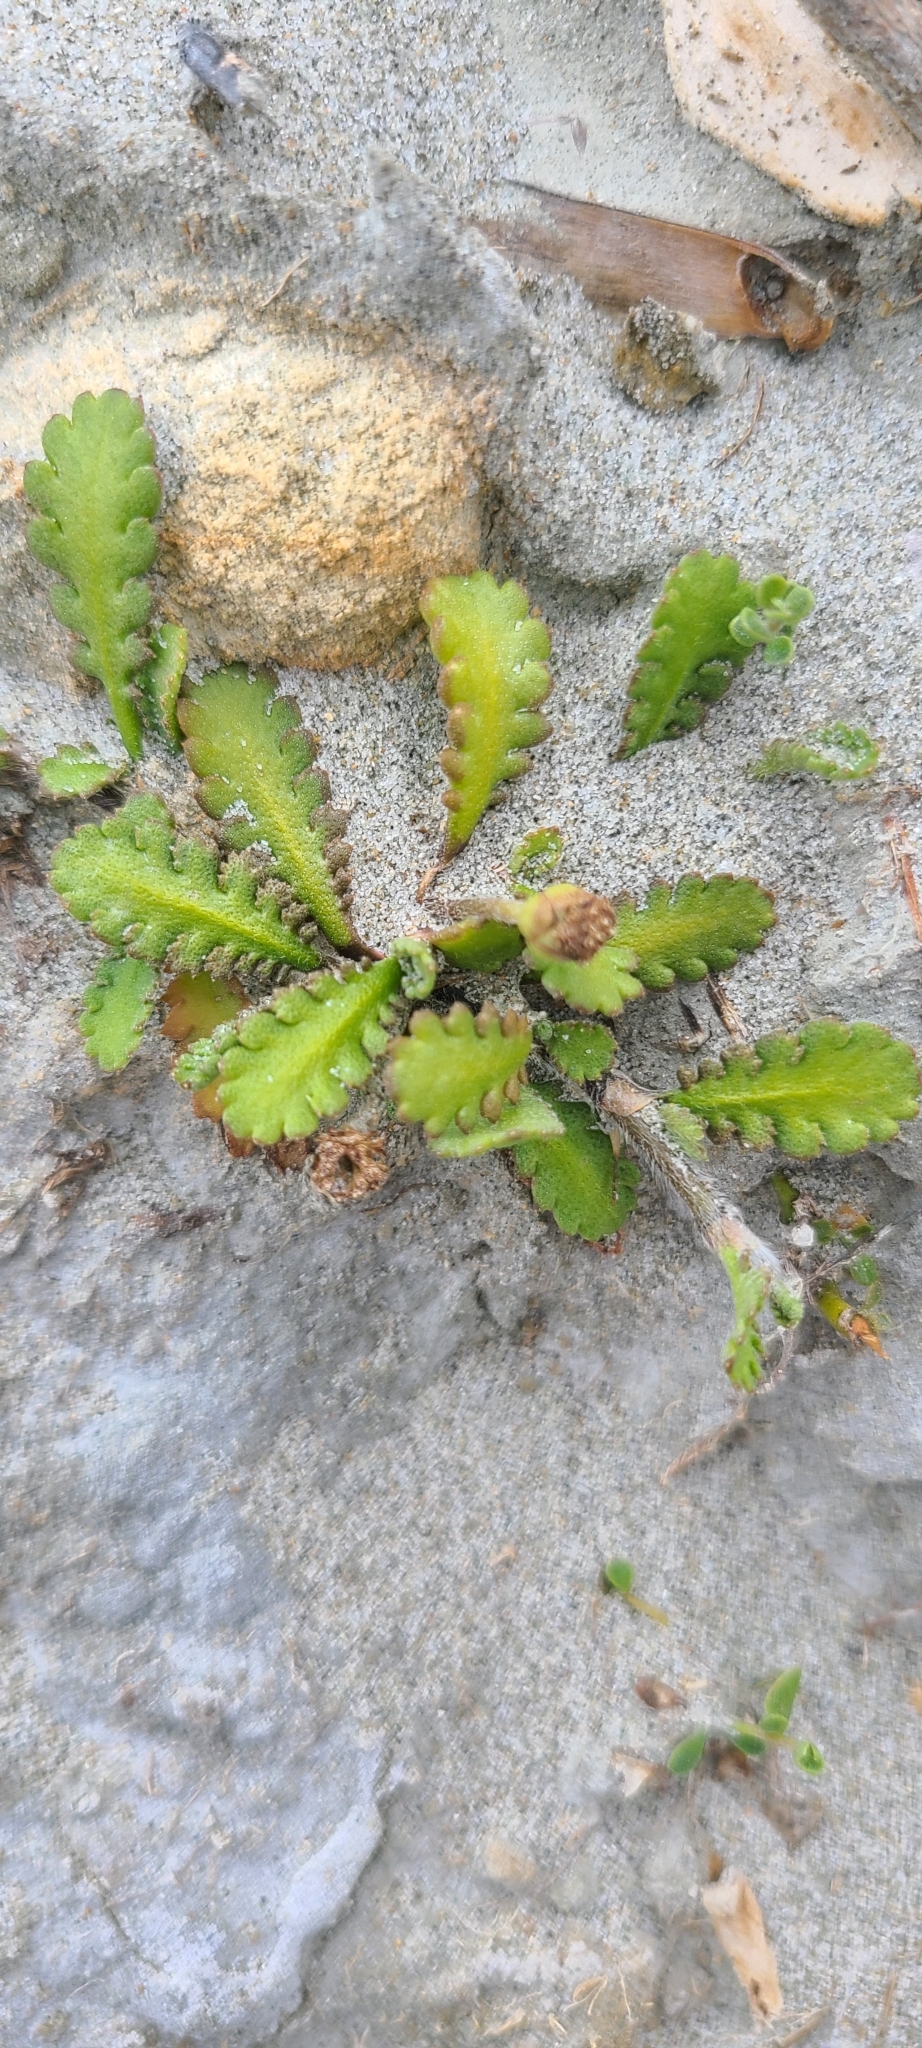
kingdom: Plantae
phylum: Tracheophyta
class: Magnoliopsida
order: Asterales
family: Asteraceae
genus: Leptinella
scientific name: Leptinella dioica
